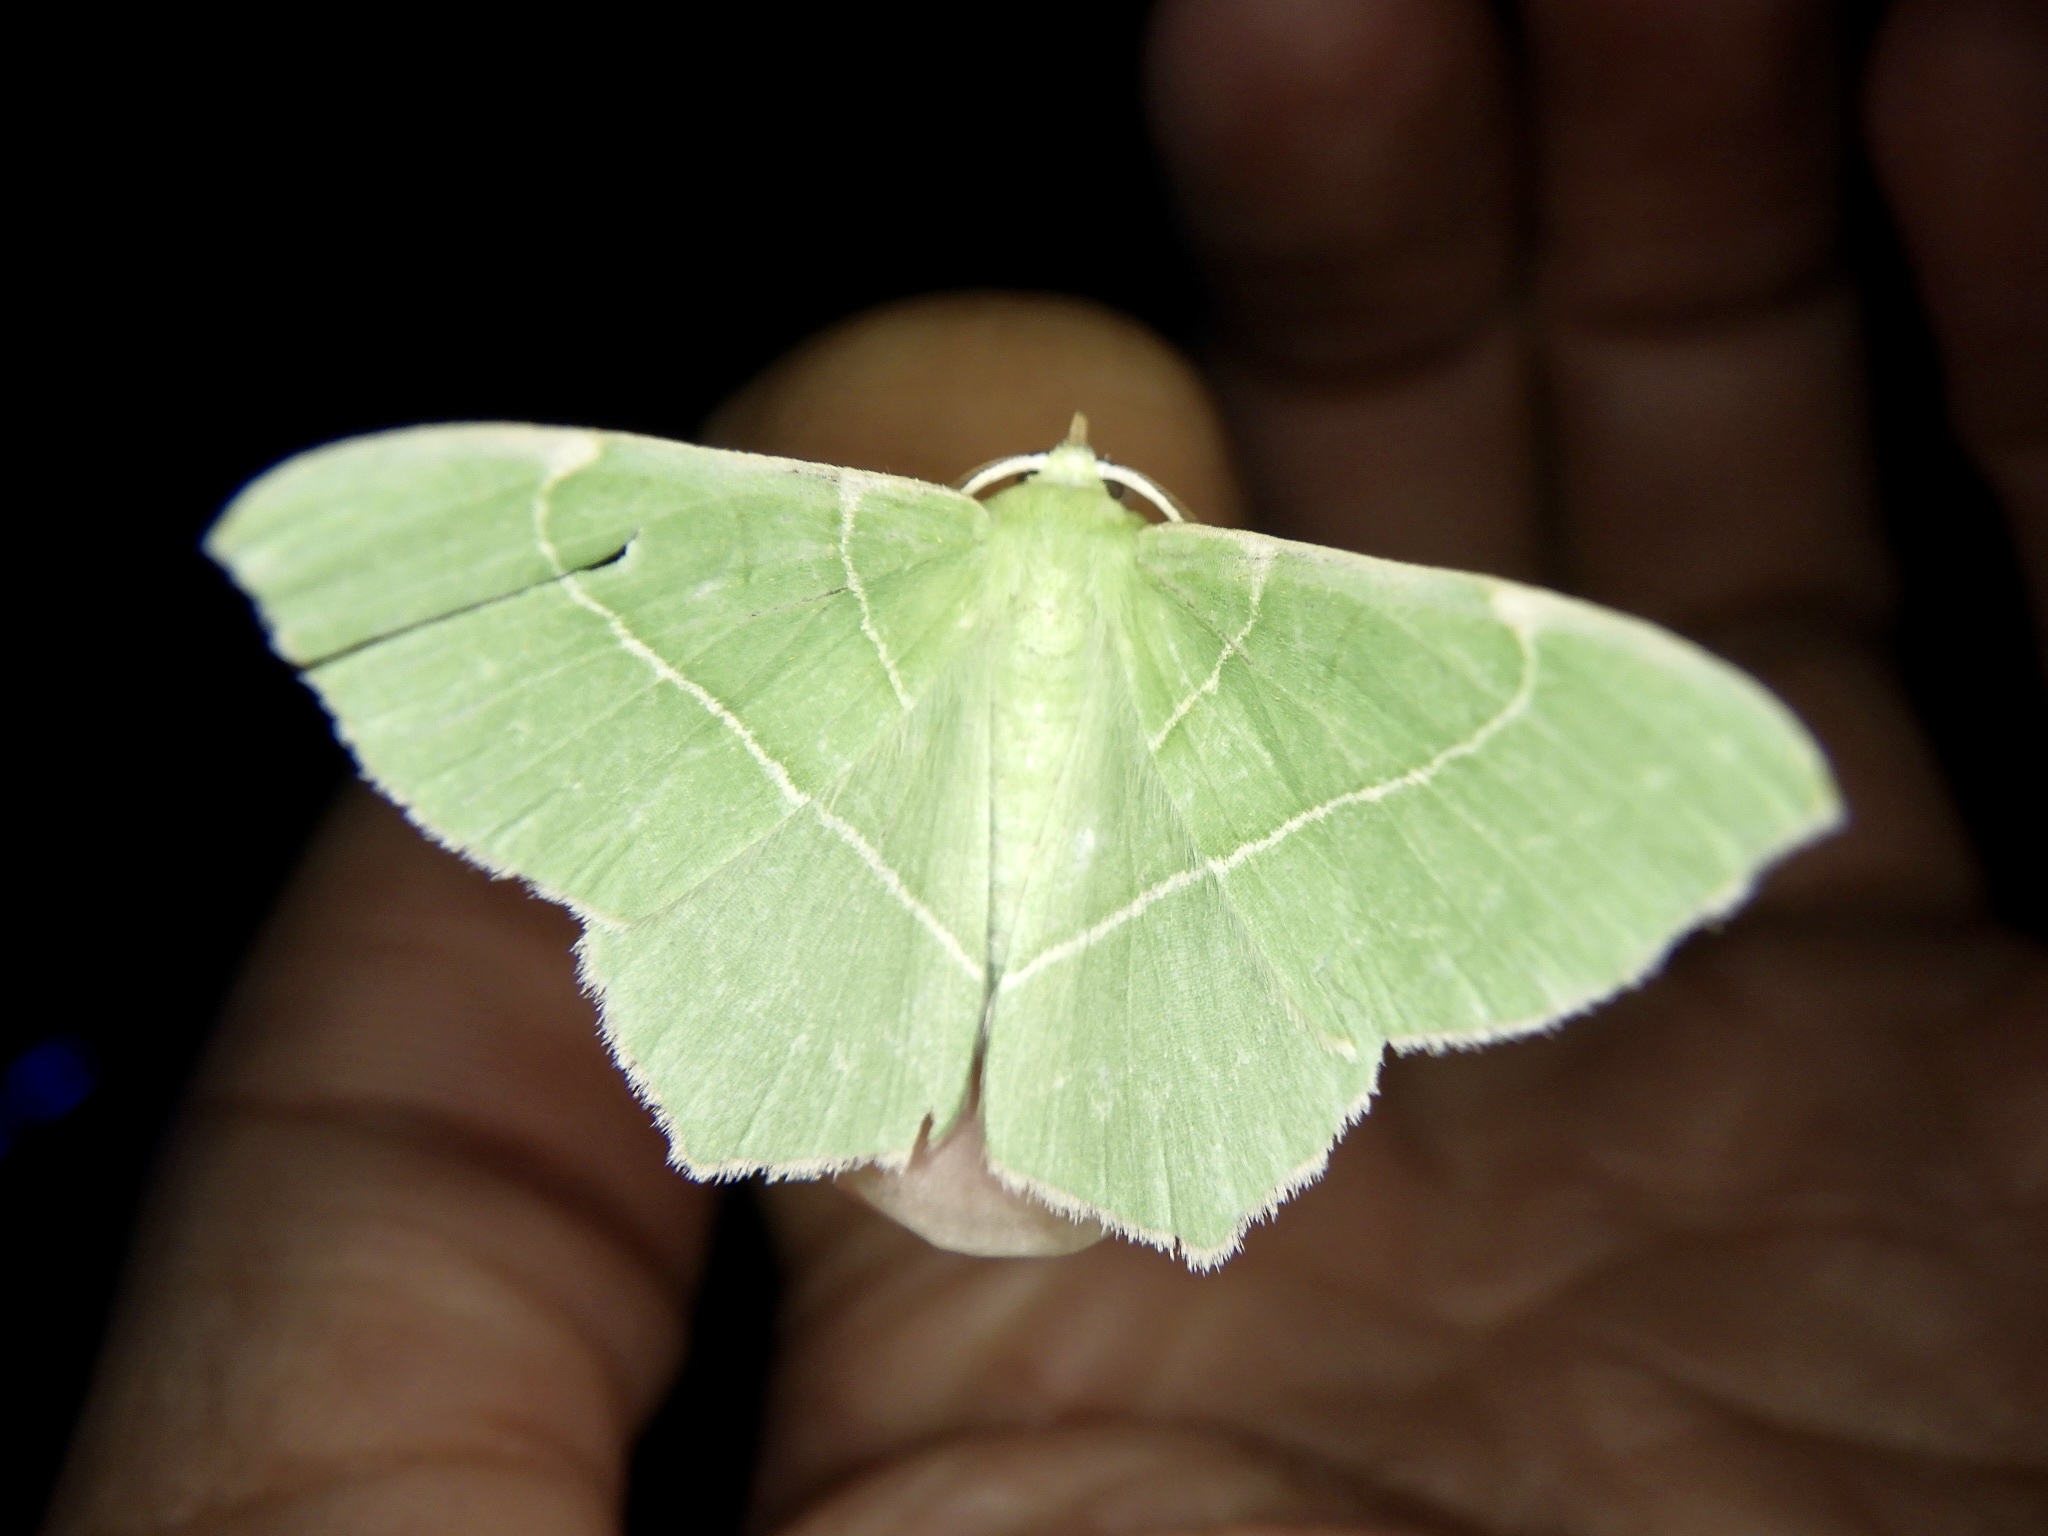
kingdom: Animalia
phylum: Arthropoda
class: Insecta
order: Lepidoptera
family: Geometridae
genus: Geometra
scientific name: Geometra dieckmanni
